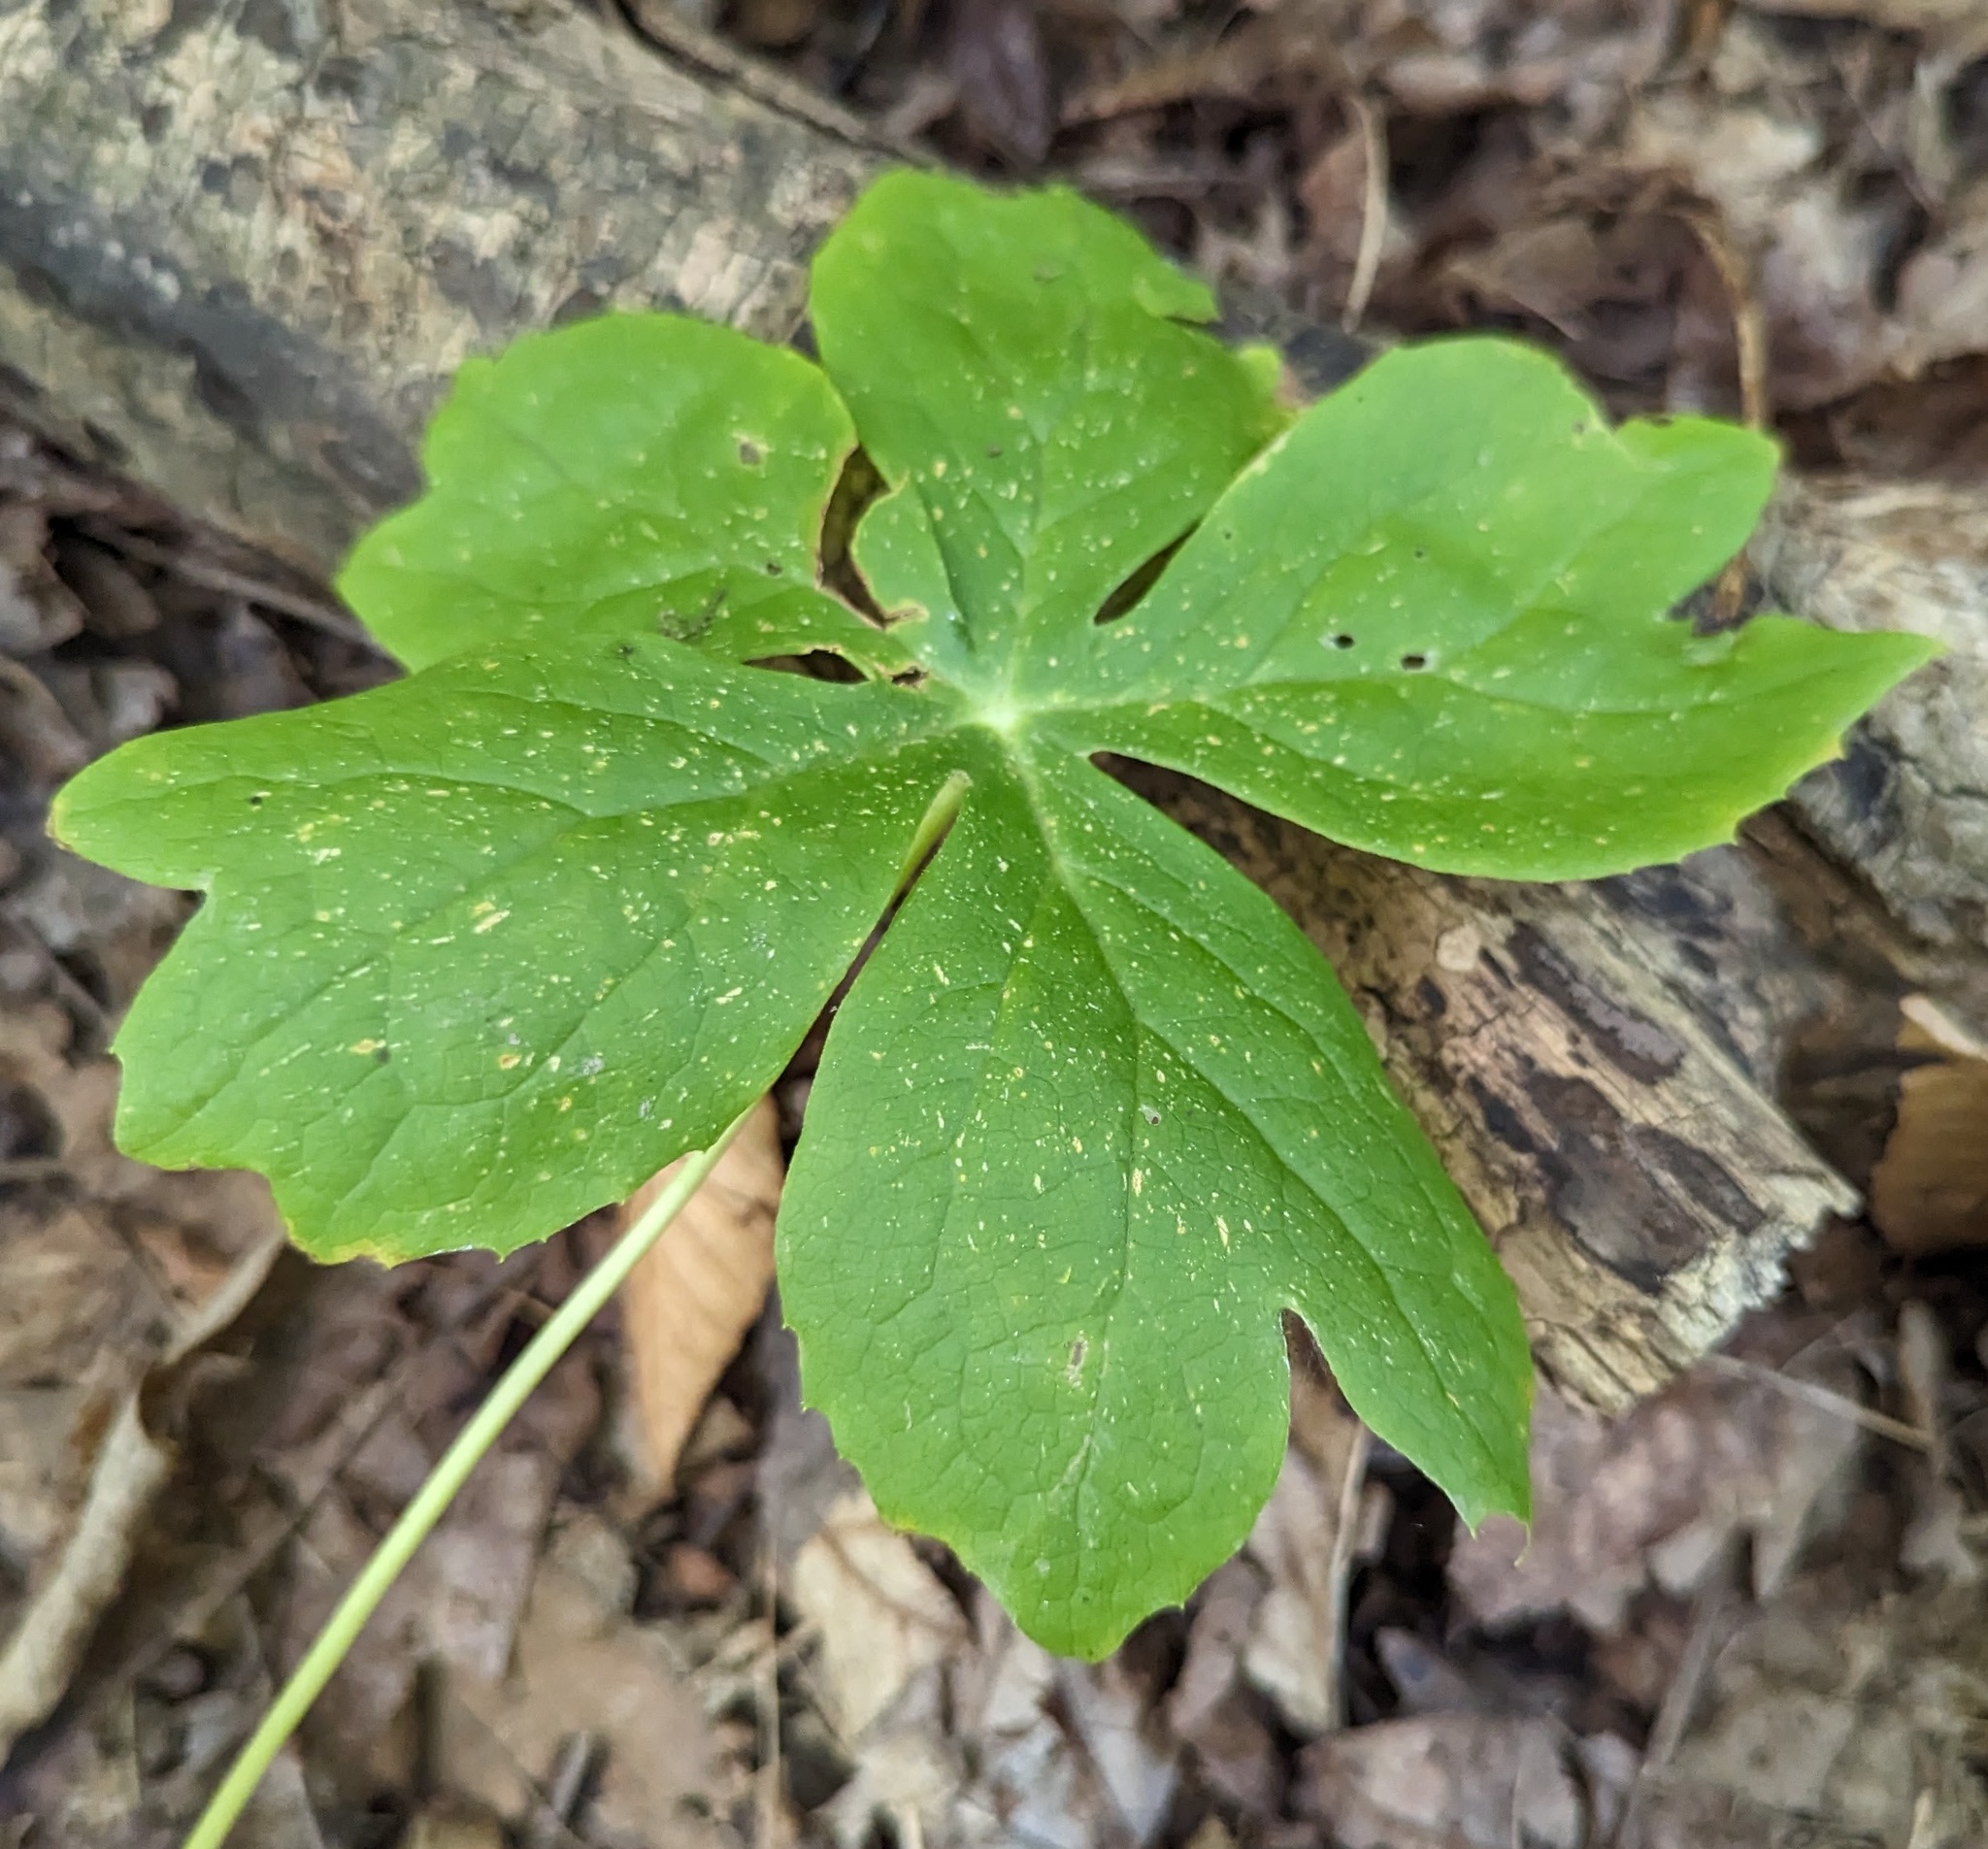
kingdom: Plantae
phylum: Tracheophyta
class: Magnoliopsida
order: Ranunculales
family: Berberidaceae
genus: Podophyllum
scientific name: Podophyllum peltatum
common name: Wild mandrake
